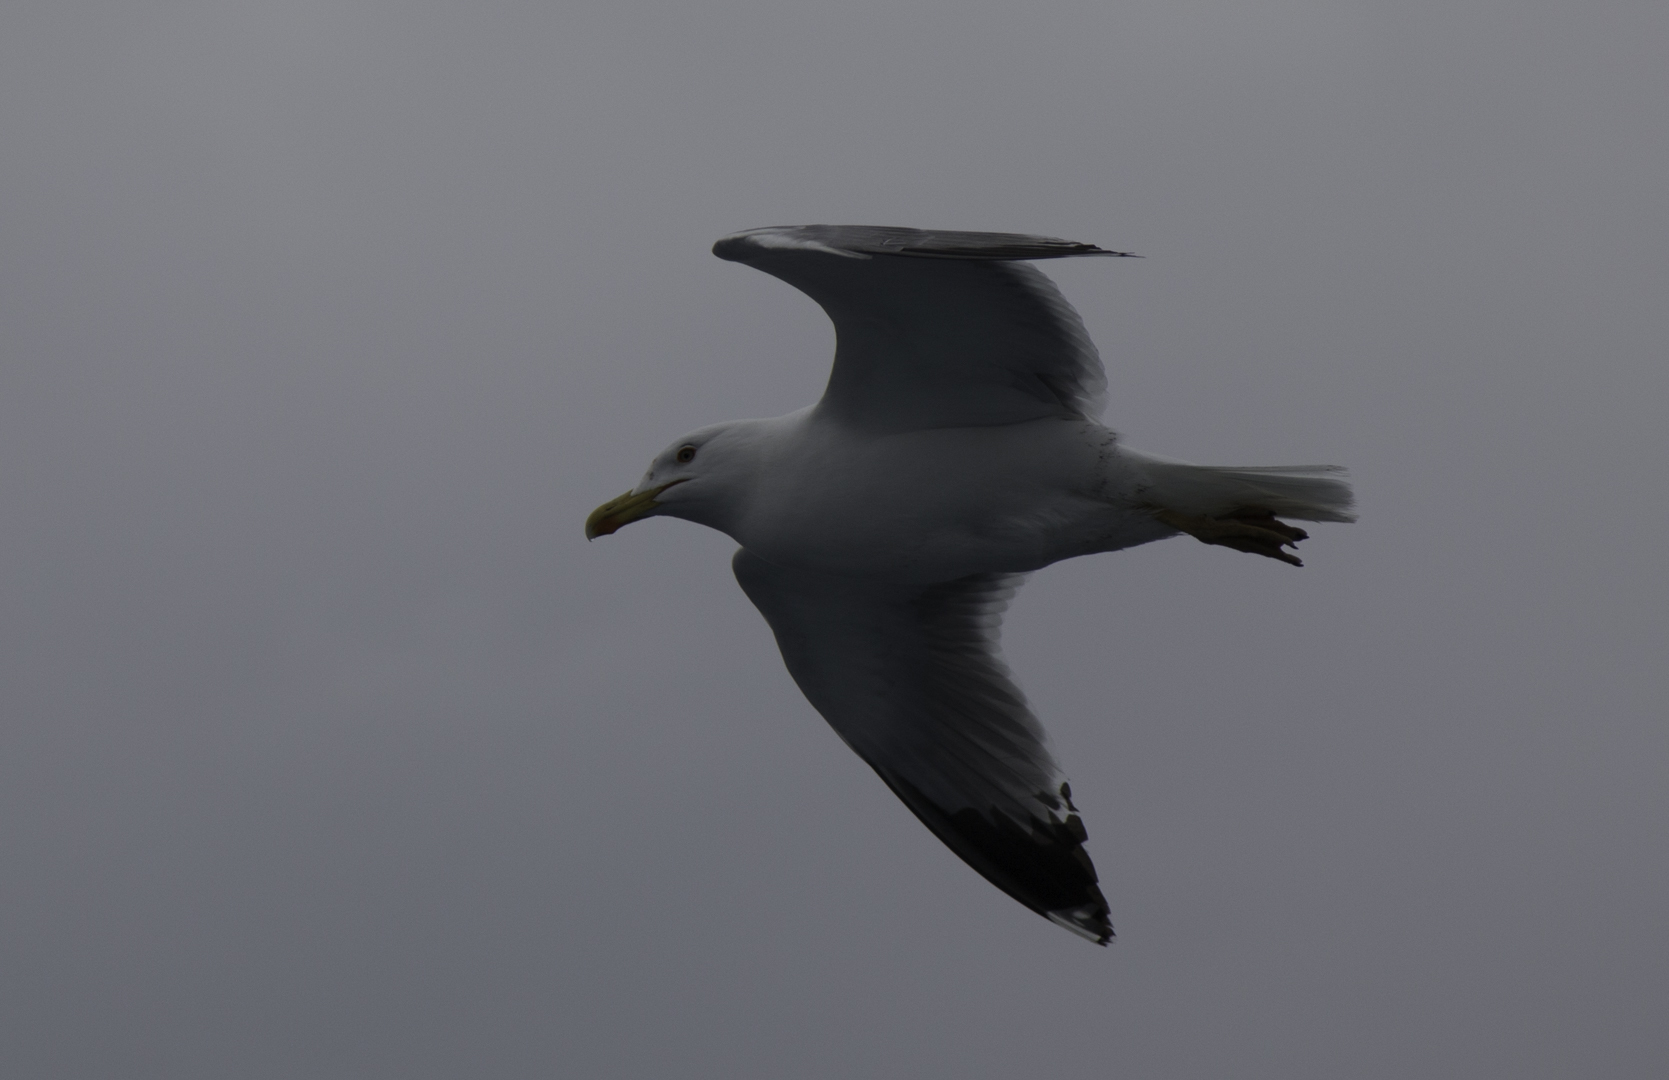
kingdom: Animalia
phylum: Chordata
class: Aves
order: Charadriiformes
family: Laridae
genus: Larus
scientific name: Larus michahellis
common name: Yellow-legged gull
